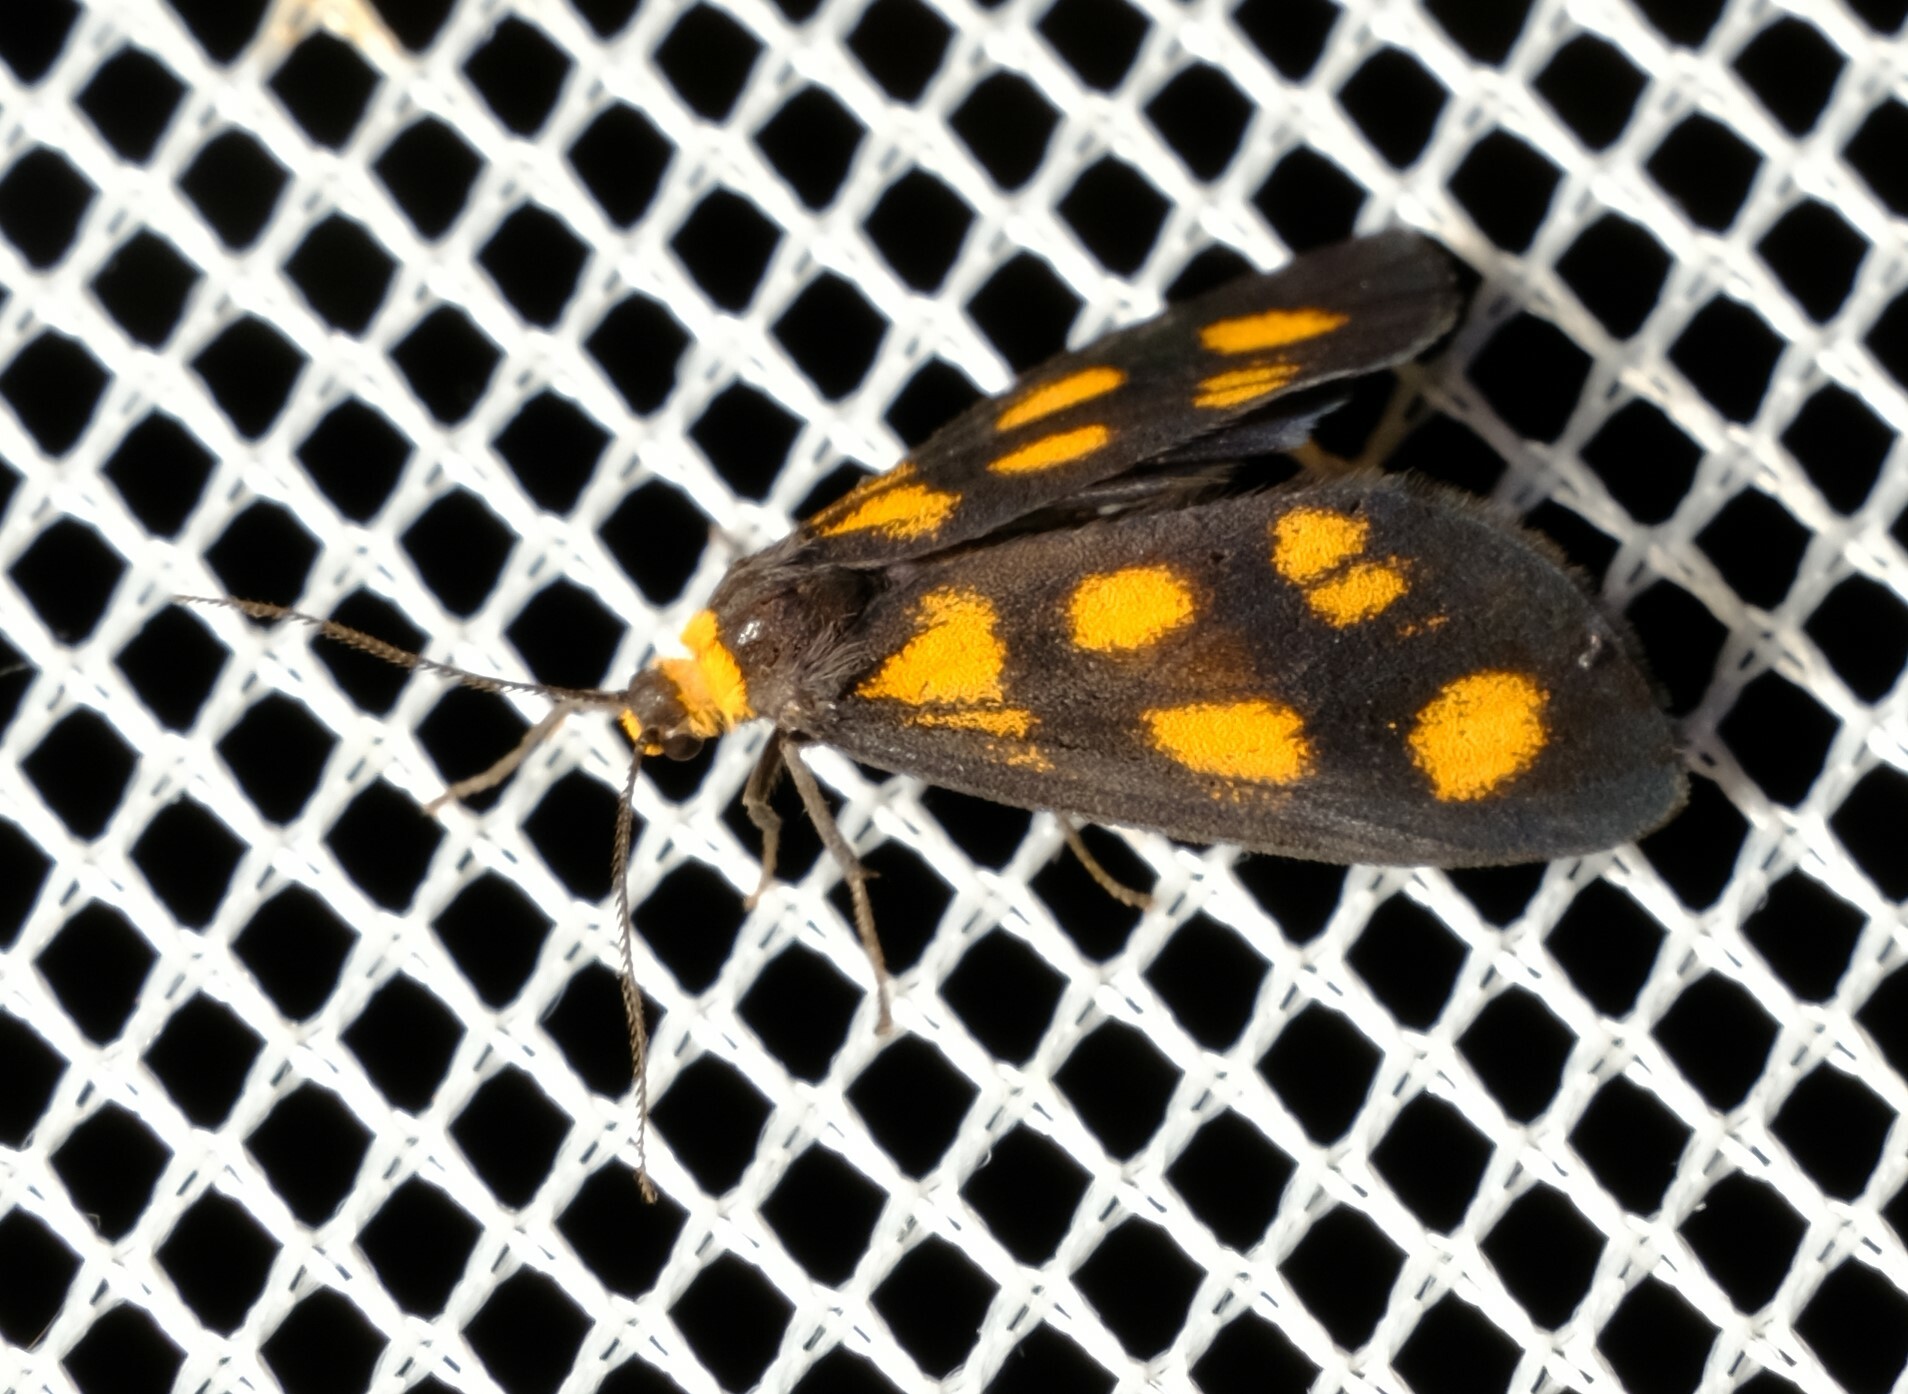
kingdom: Animalia
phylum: Arthropoda
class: Insecta
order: Lepidoptera
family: Erebidae
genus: Asura
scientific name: Asura cervicalis
